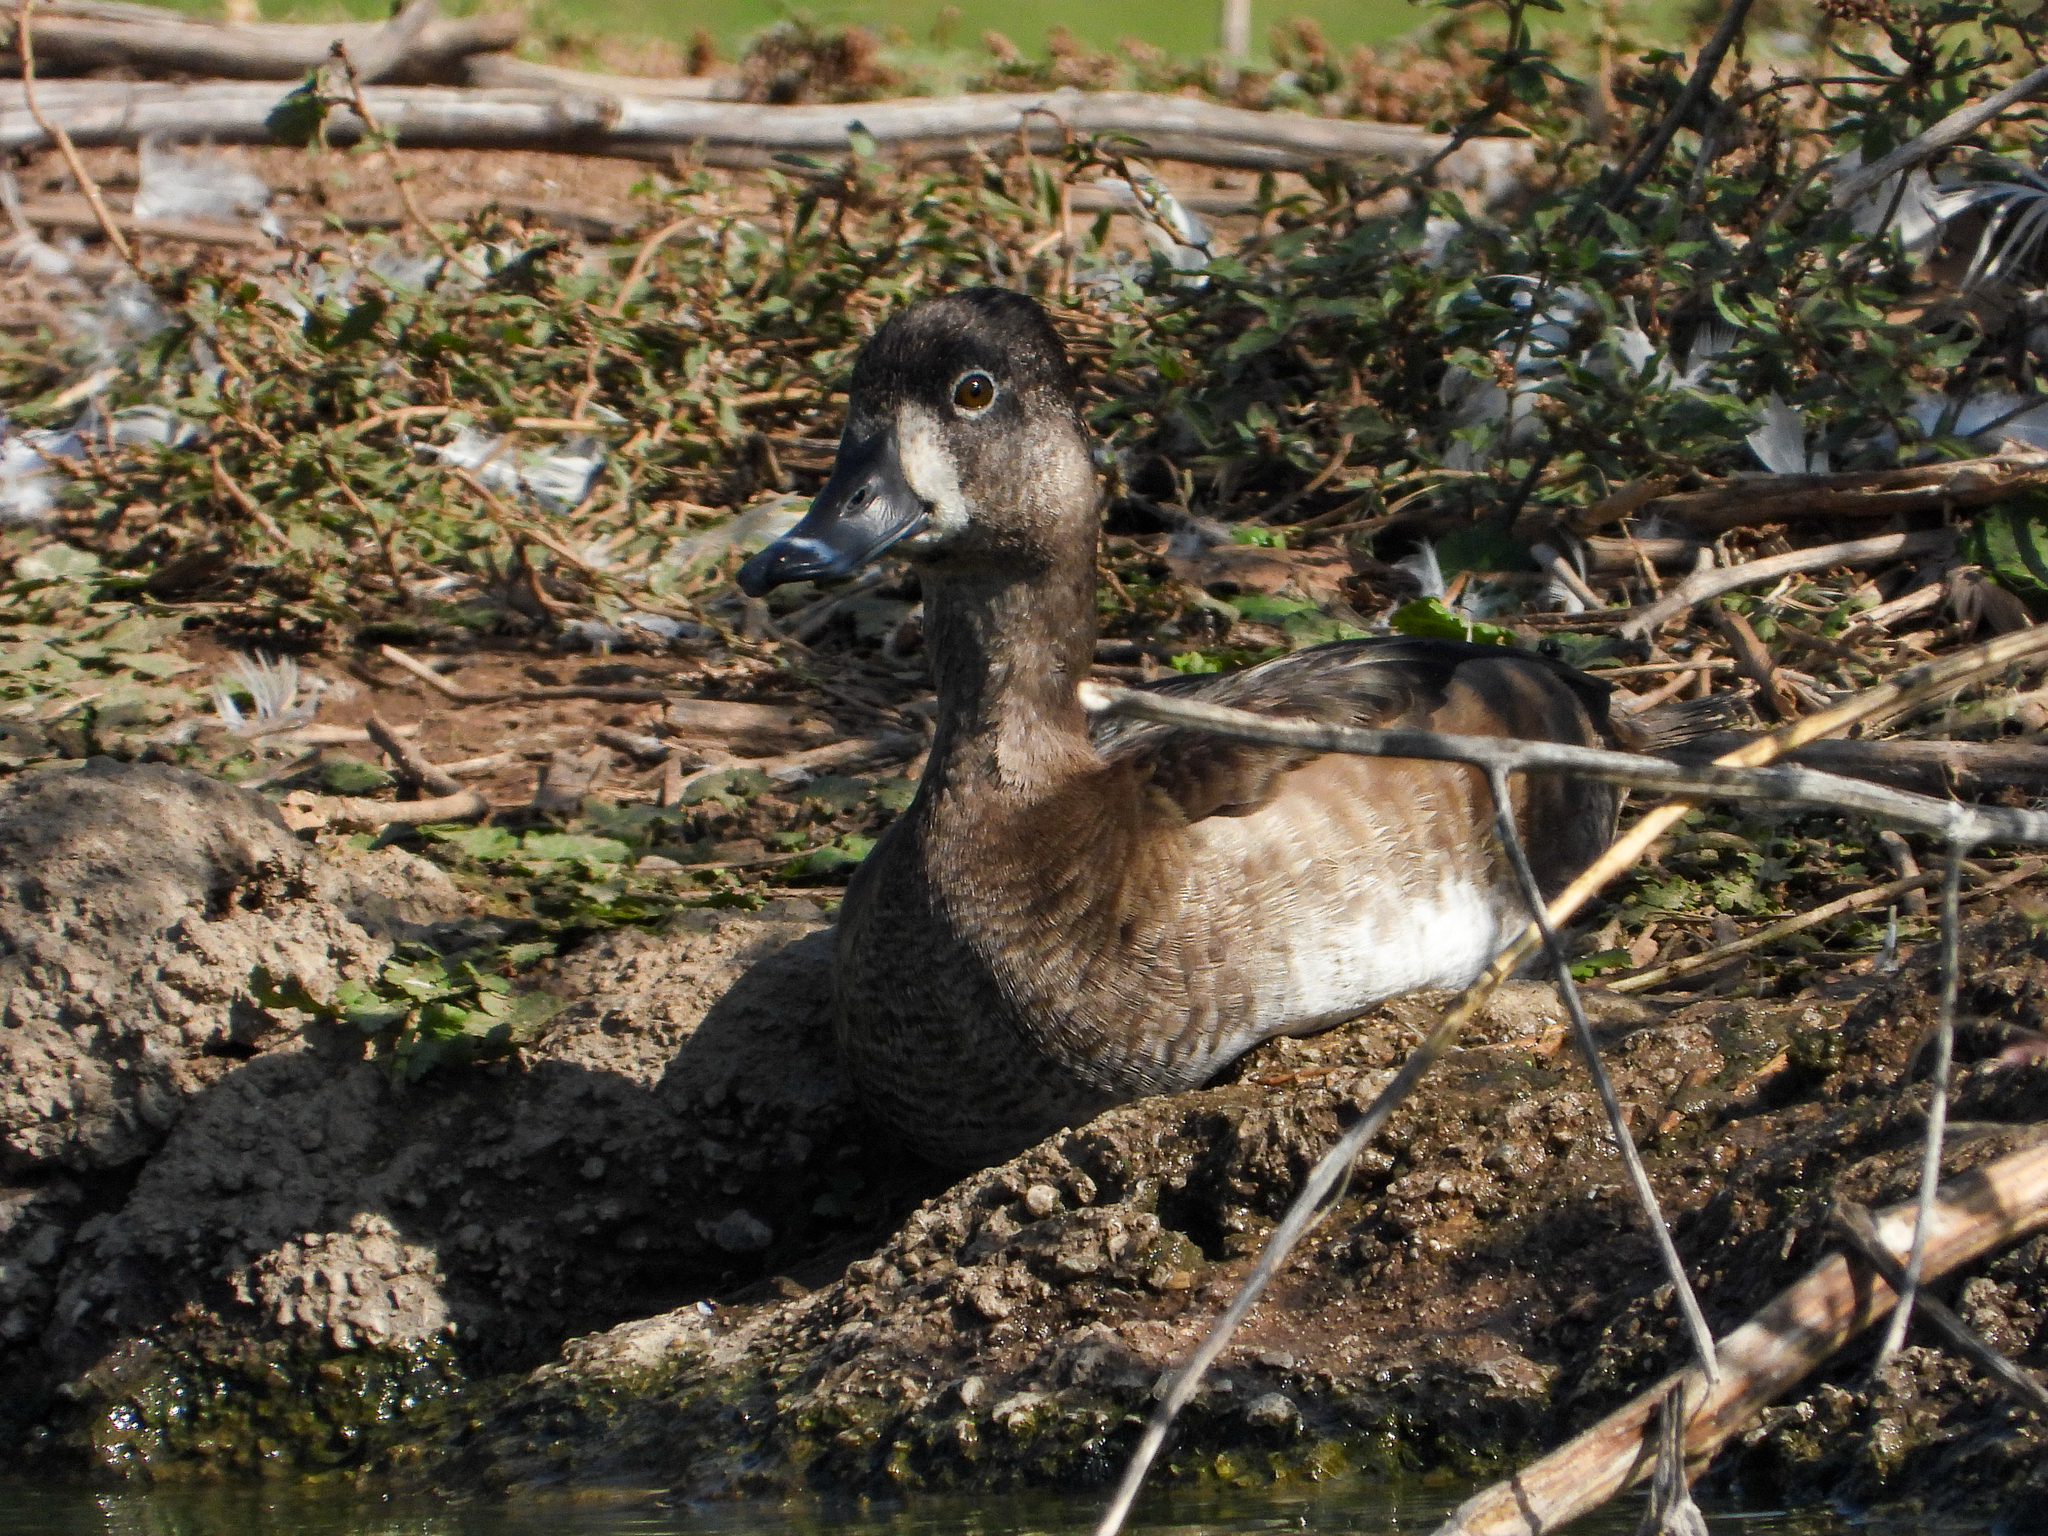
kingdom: Animalia
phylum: Chordata
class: Aves
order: Anseriformes
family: Anatidae
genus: Aythya
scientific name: Aythya collaris
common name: Ring-necked duck
